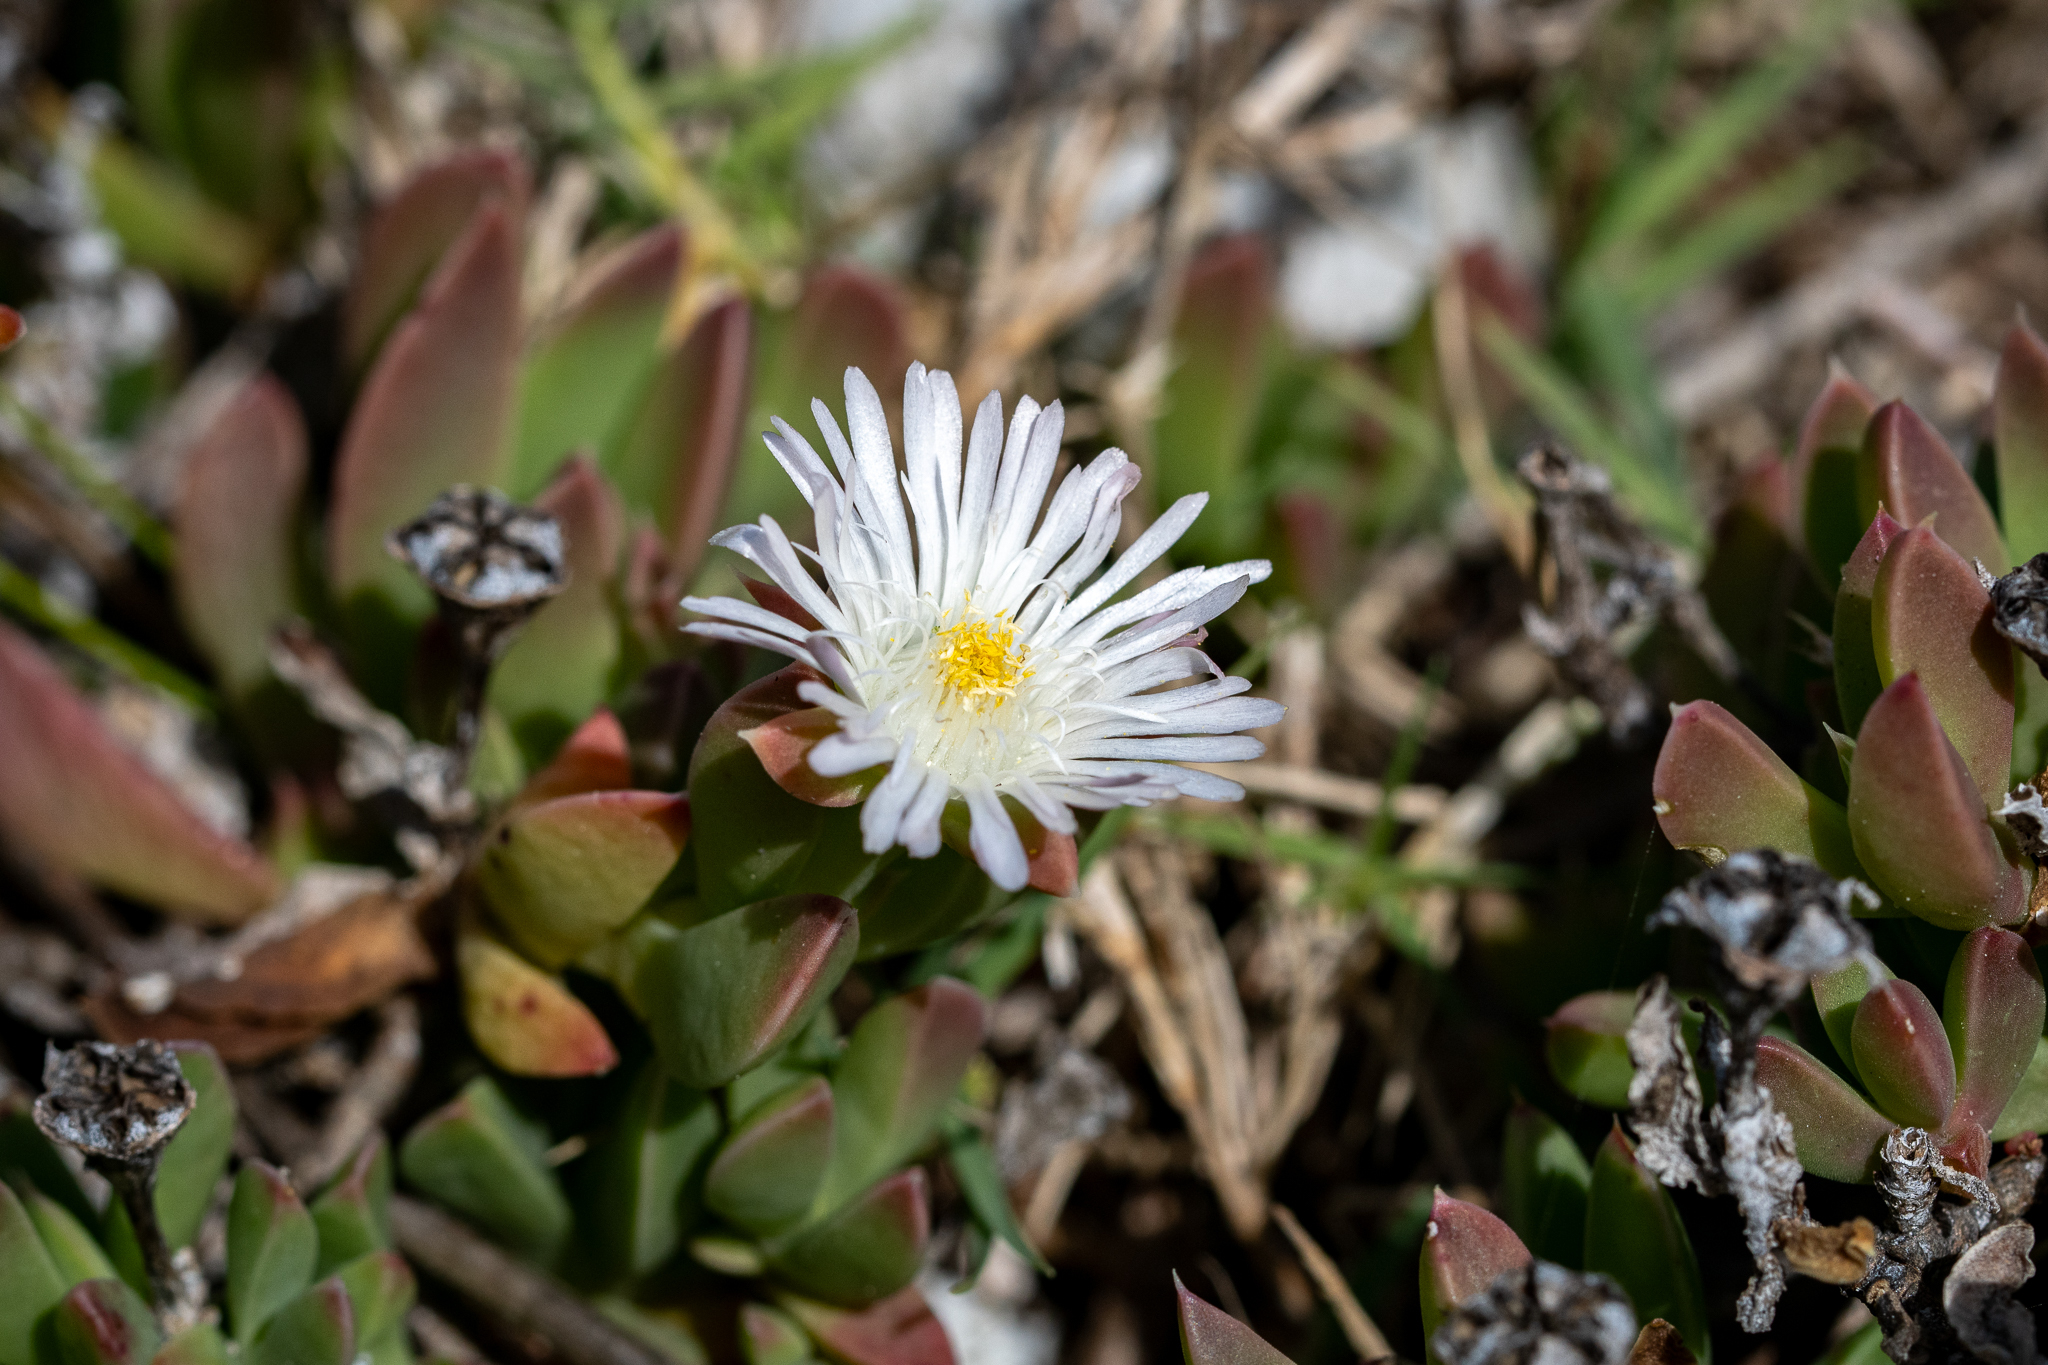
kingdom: Plantae
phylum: Tracheophyta
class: Magnoliopsida
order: Caryophyllales
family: Aizoaceae
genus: Delosperma
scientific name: Delosperma guthriei
